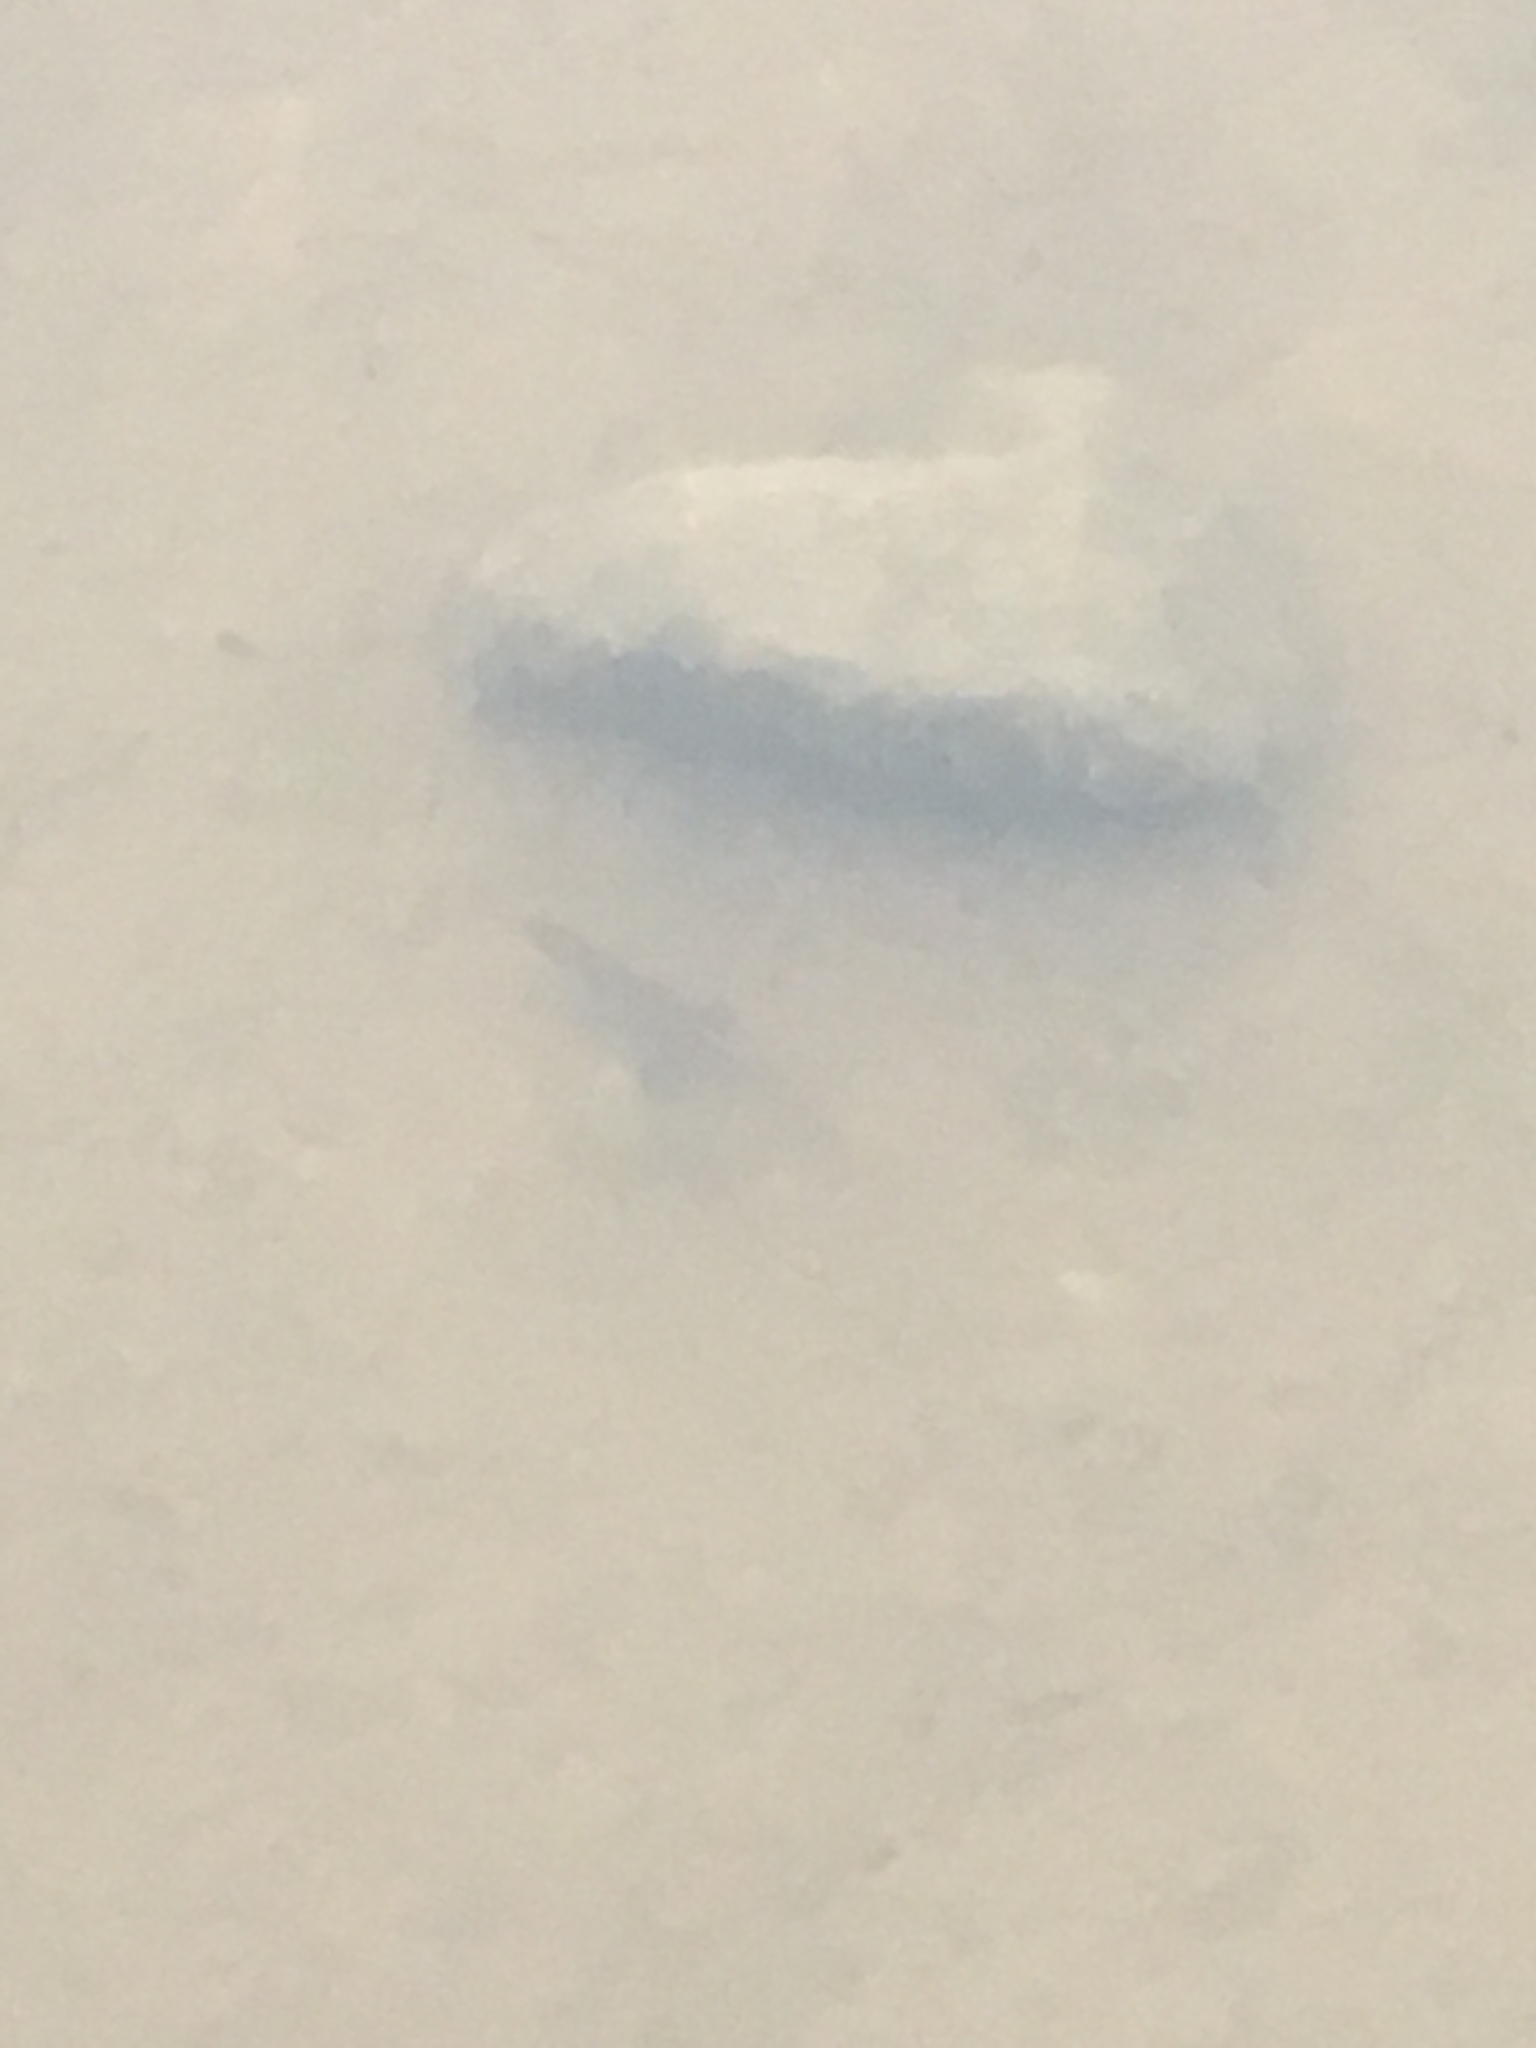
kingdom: Animalia
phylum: Chordata
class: Amphibia
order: Caudata
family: Salamandridae
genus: Notophthalmus
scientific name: Notophthalmus viridescens
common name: Eastern newt
